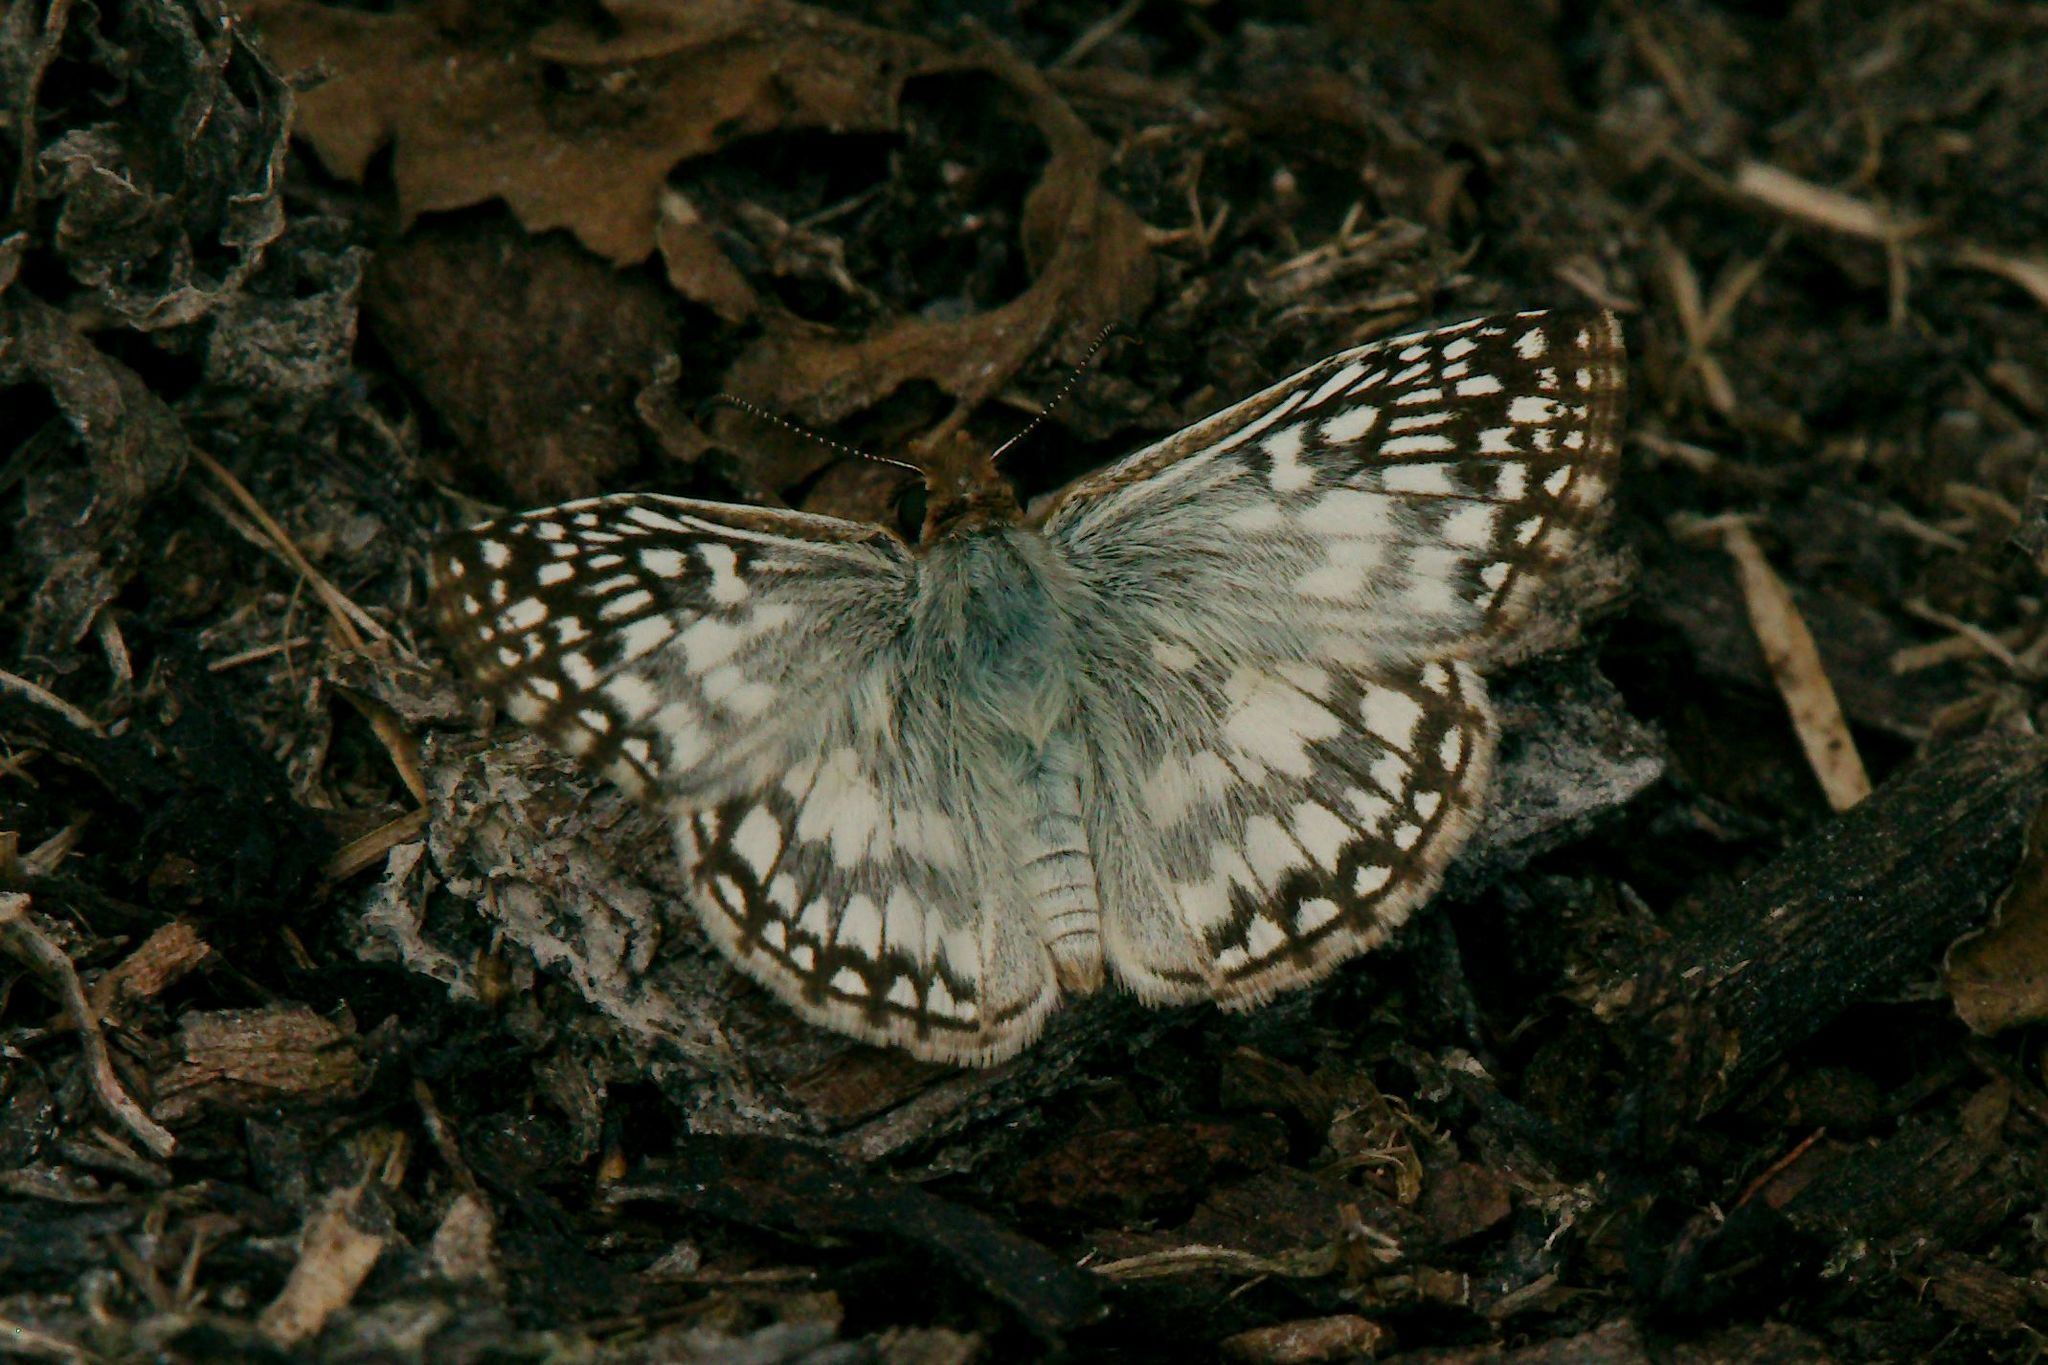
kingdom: Animalia
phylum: Arthropoda
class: Insecta
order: Lepidoptera
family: Hesperiidae
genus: Pyrgus
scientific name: Pyrgus oileus
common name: Tropical checkered-skipper
